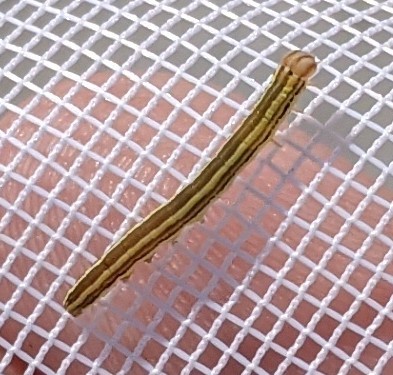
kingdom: Animalia
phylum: Arthropoda
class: Insecta
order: Lepidoptera
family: Noctuidae
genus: Trichordestra
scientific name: Trichordestra legitima
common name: Striped garden caterpillar
